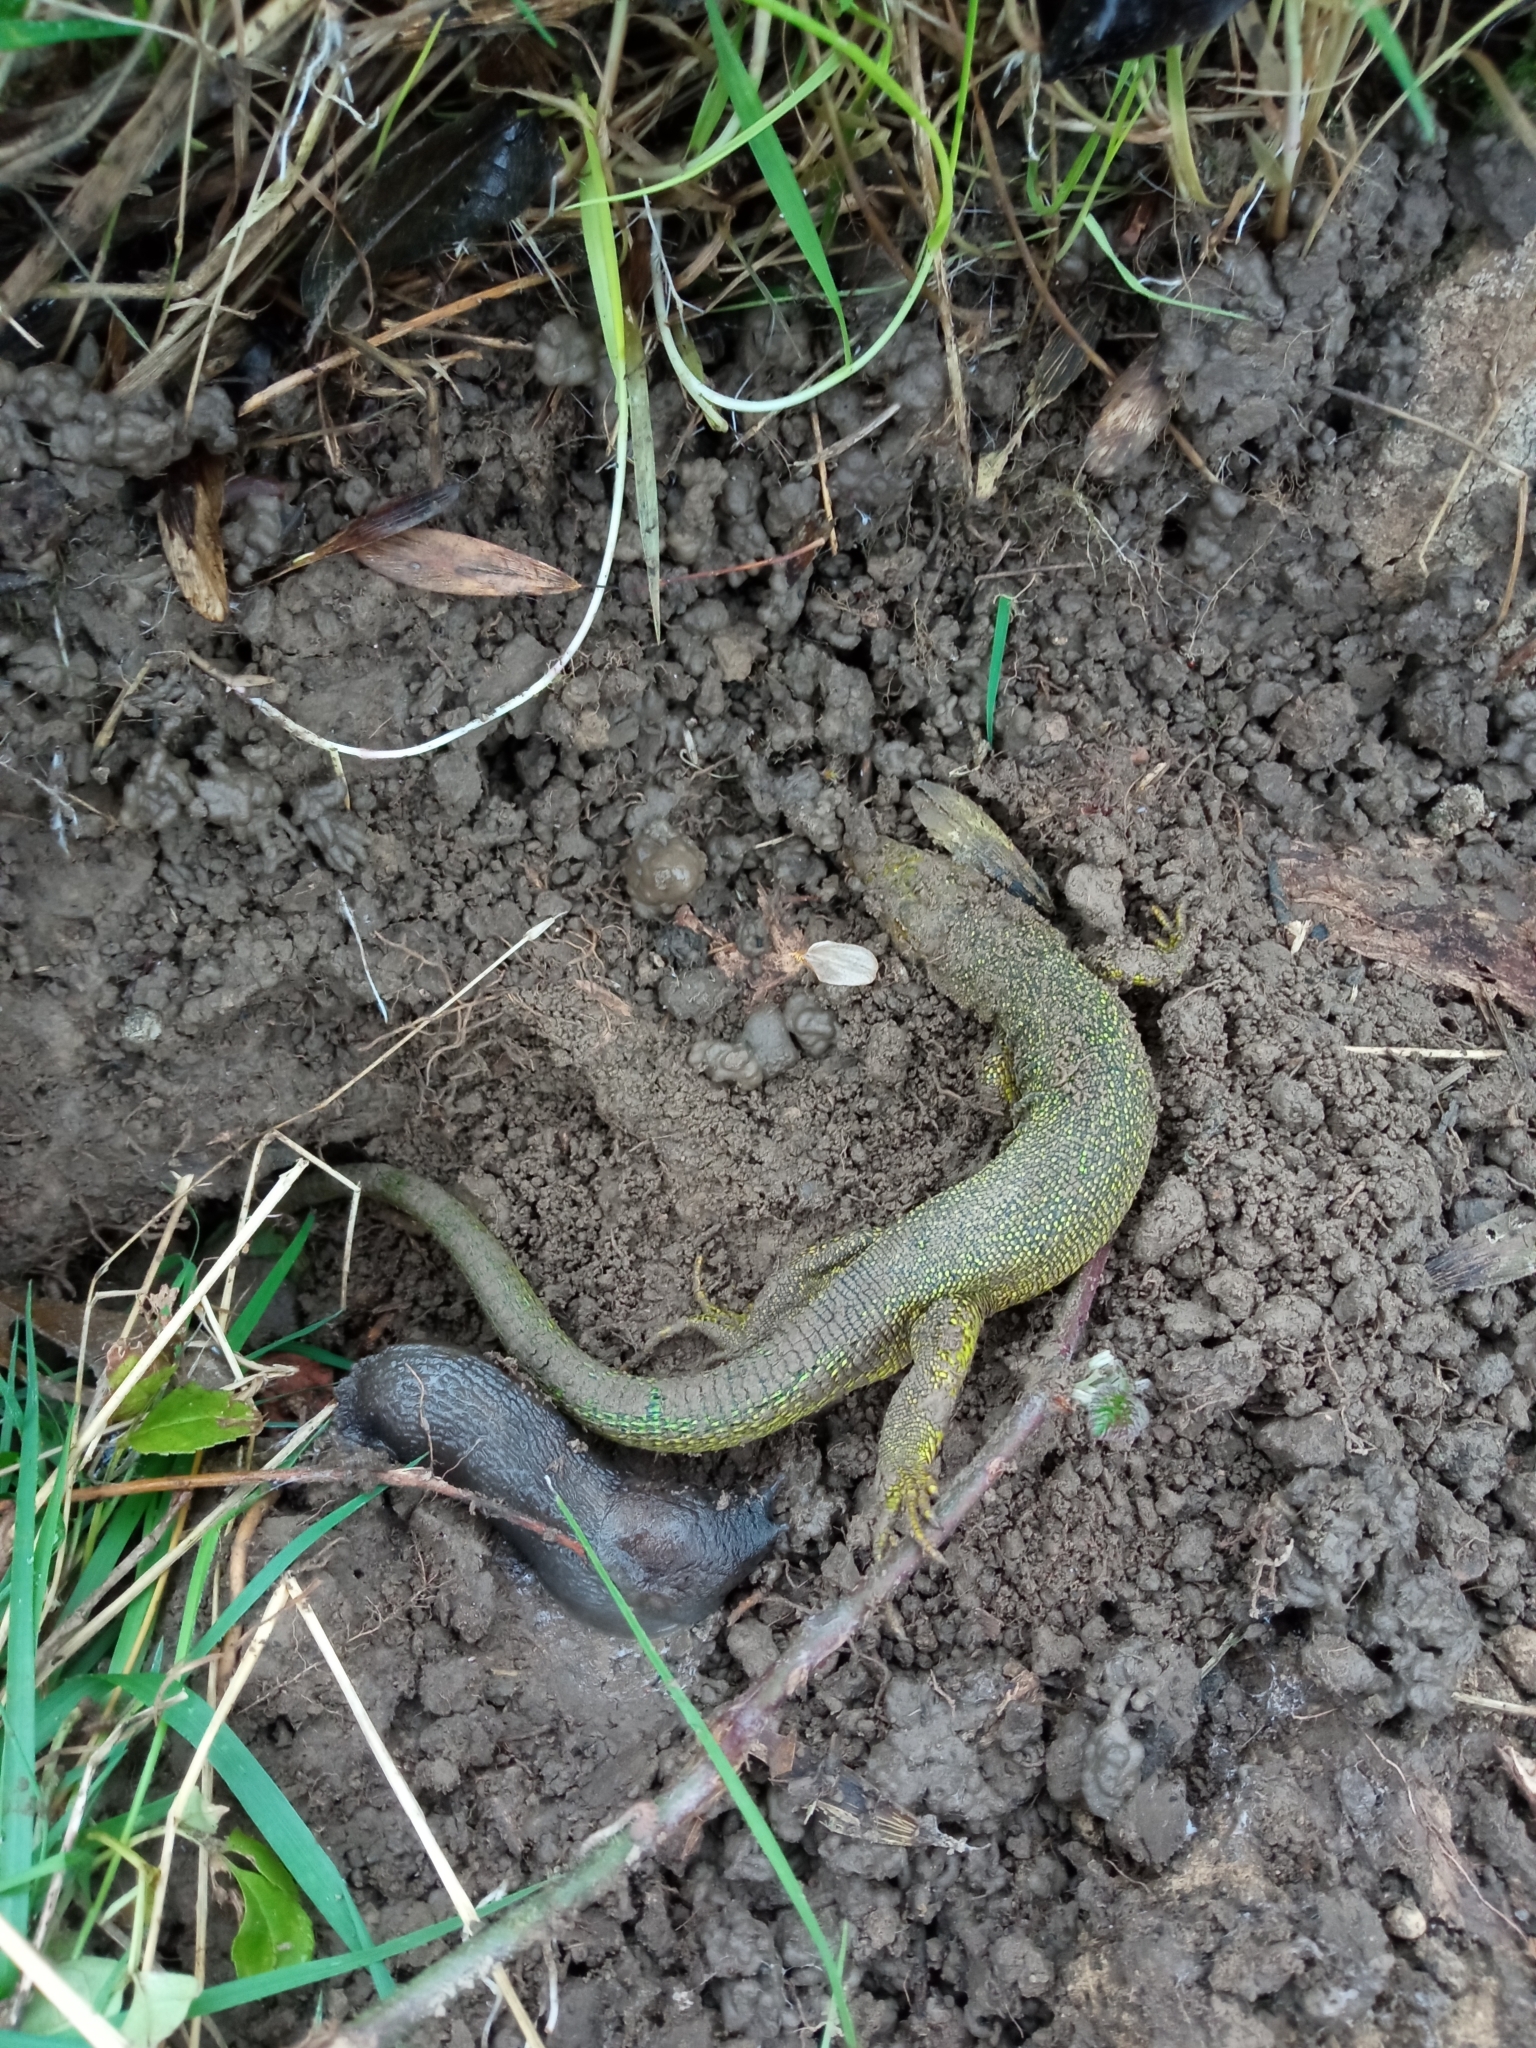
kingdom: Animalia
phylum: Chordata
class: Squamata
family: Lacertidae
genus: Lacerta
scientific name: Lacerta bilineata
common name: Western green lizard
